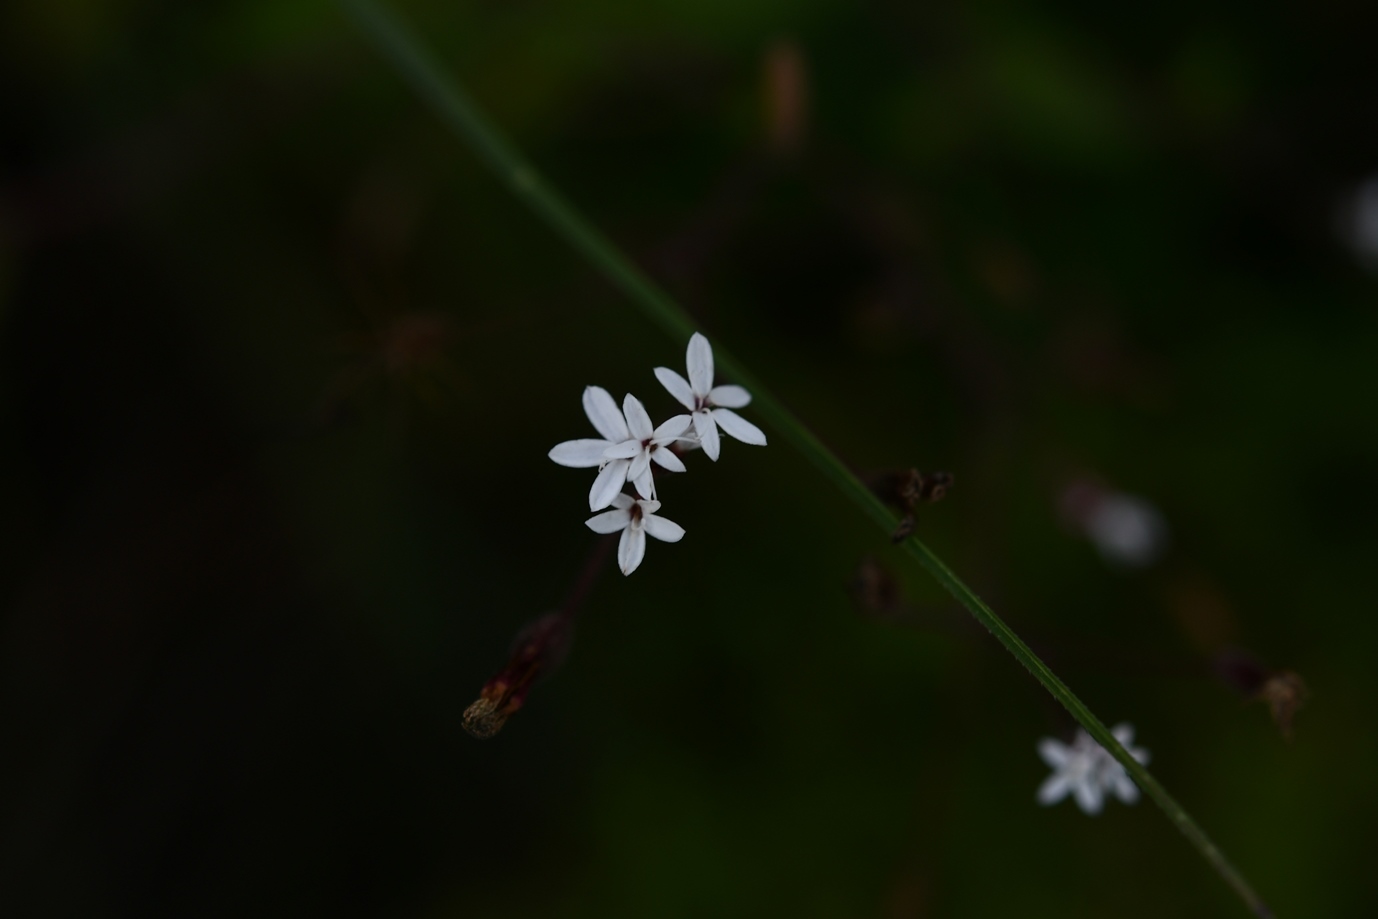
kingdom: Plantae
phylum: Tracheophyta
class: Magnoliopsida
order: Asterales
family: Asteraceae
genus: Stevia
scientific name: Stevia elatior
